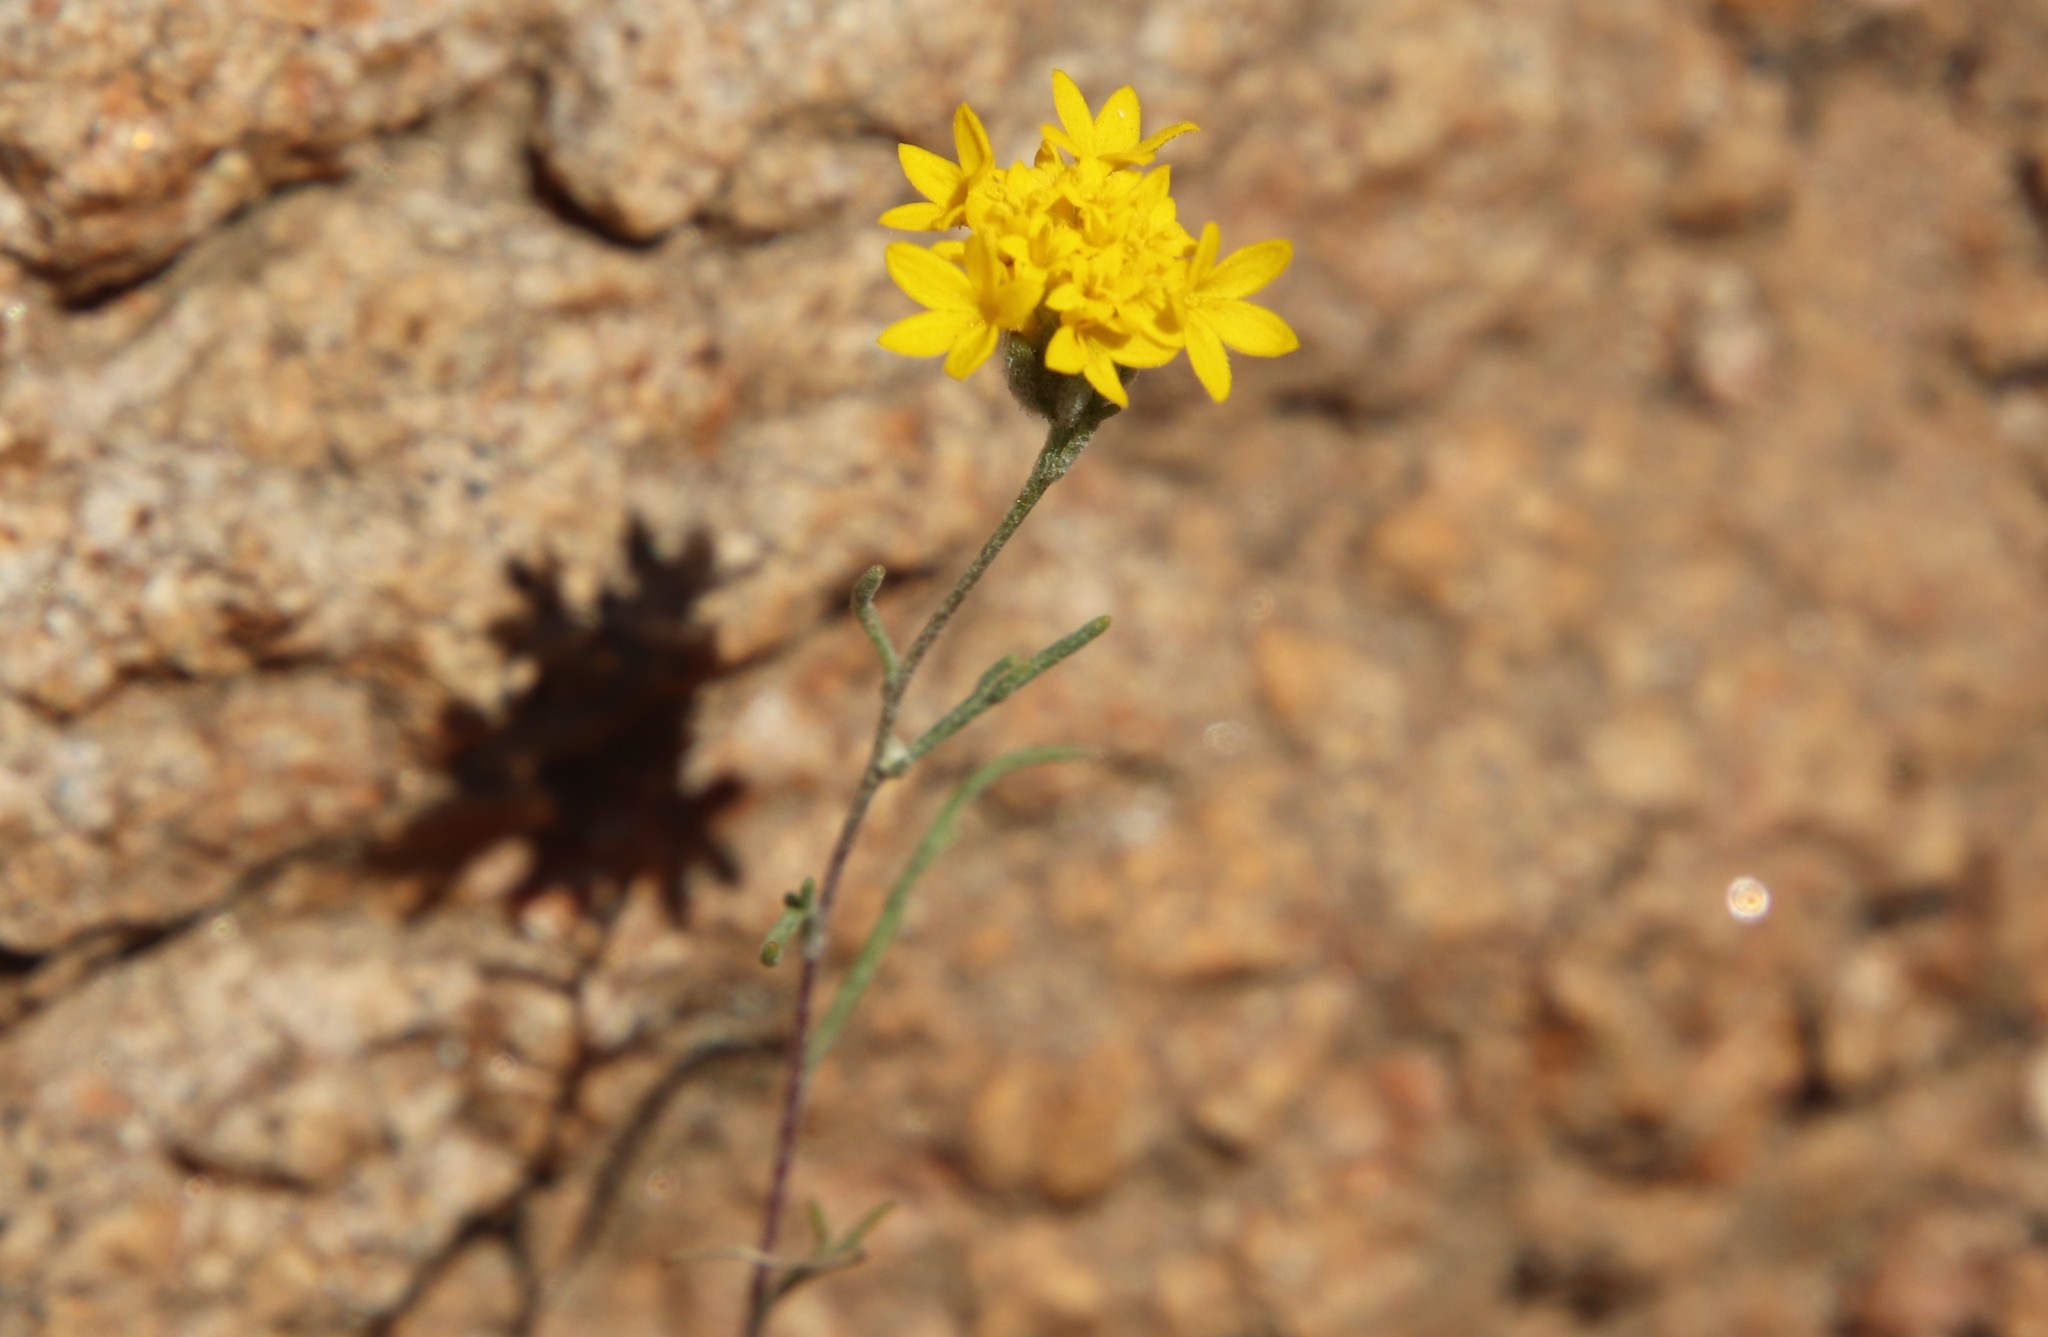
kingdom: Plantae
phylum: Tracheophyta
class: Magnoliopsida
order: Asterales
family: Asteraceae
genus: Chaenactis
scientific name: Chaenactis glabriuscula
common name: Yellow pincushion
